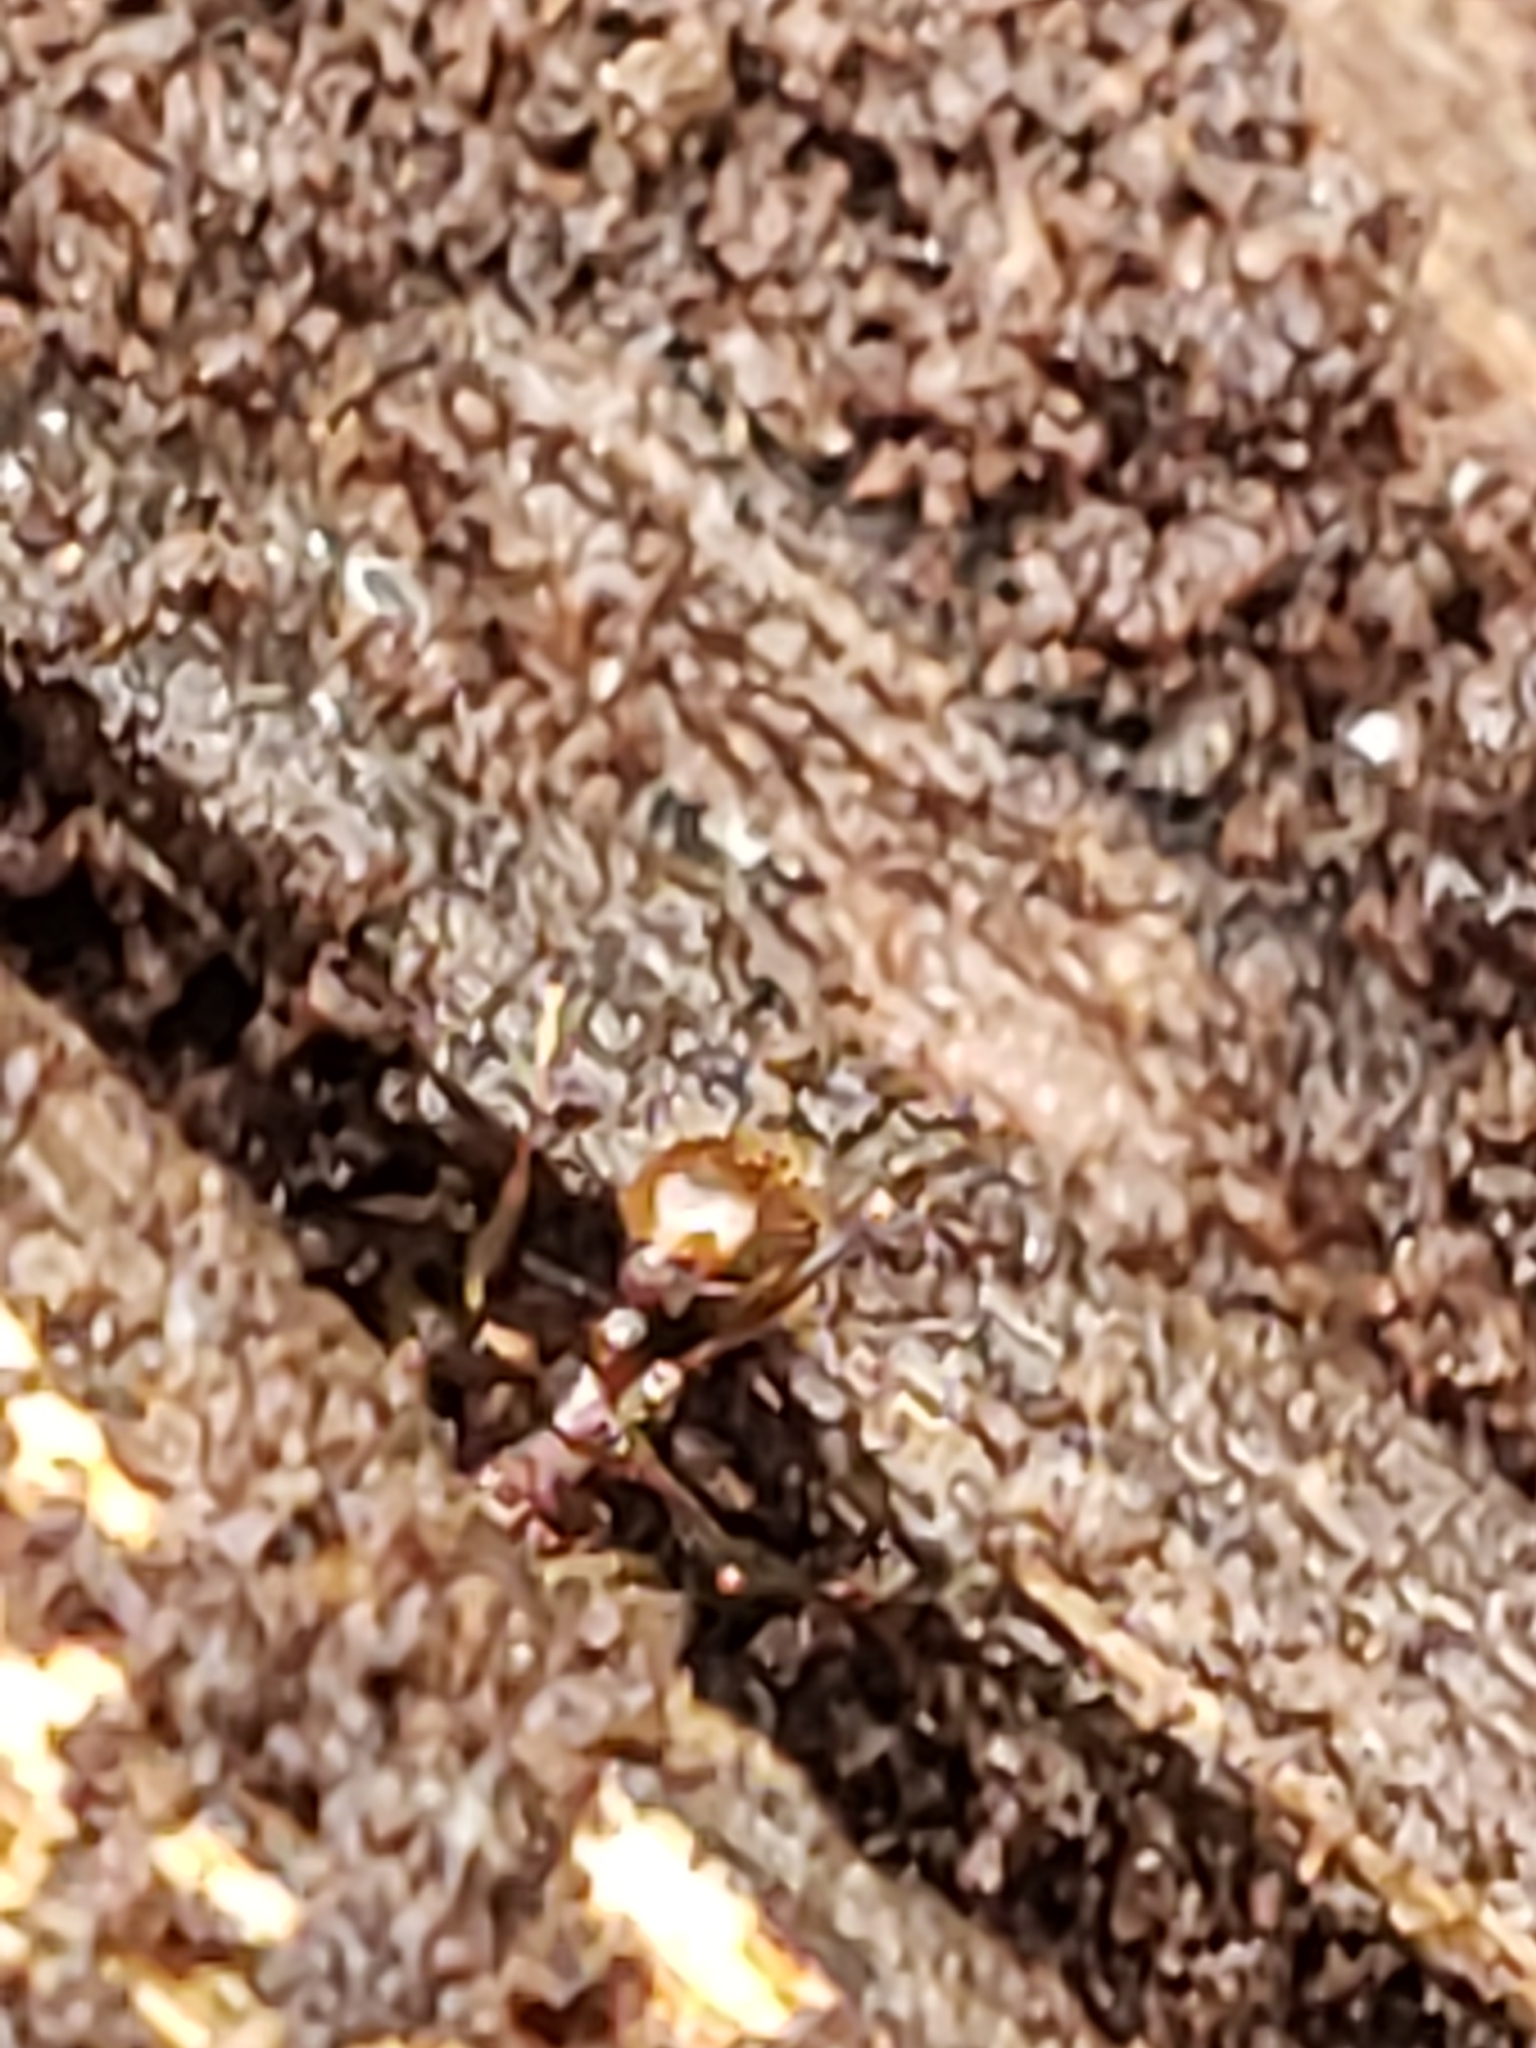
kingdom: Animalia
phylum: Arthropoda
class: Insecta
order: Hymenoptera
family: Formicidae
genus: Aphaenogaster
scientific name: Aphaenogaster fulva
